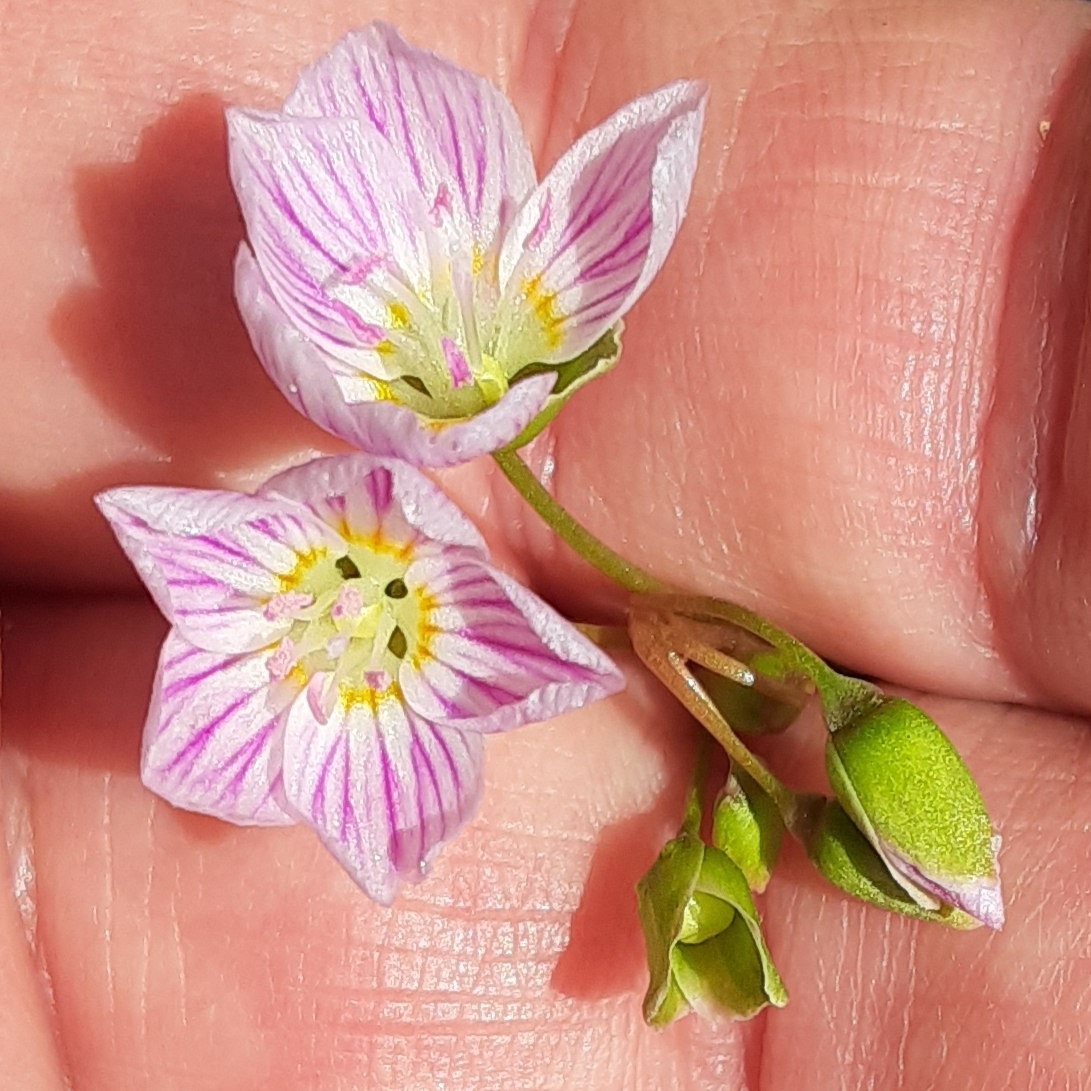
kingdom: Plantae
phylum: Tracheophyta
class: Magnoliopsida
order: Caryophyllales
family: Montiaceae
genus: Claytonia
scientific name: Claytonia caroliniana
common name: Carolina spring beauty
